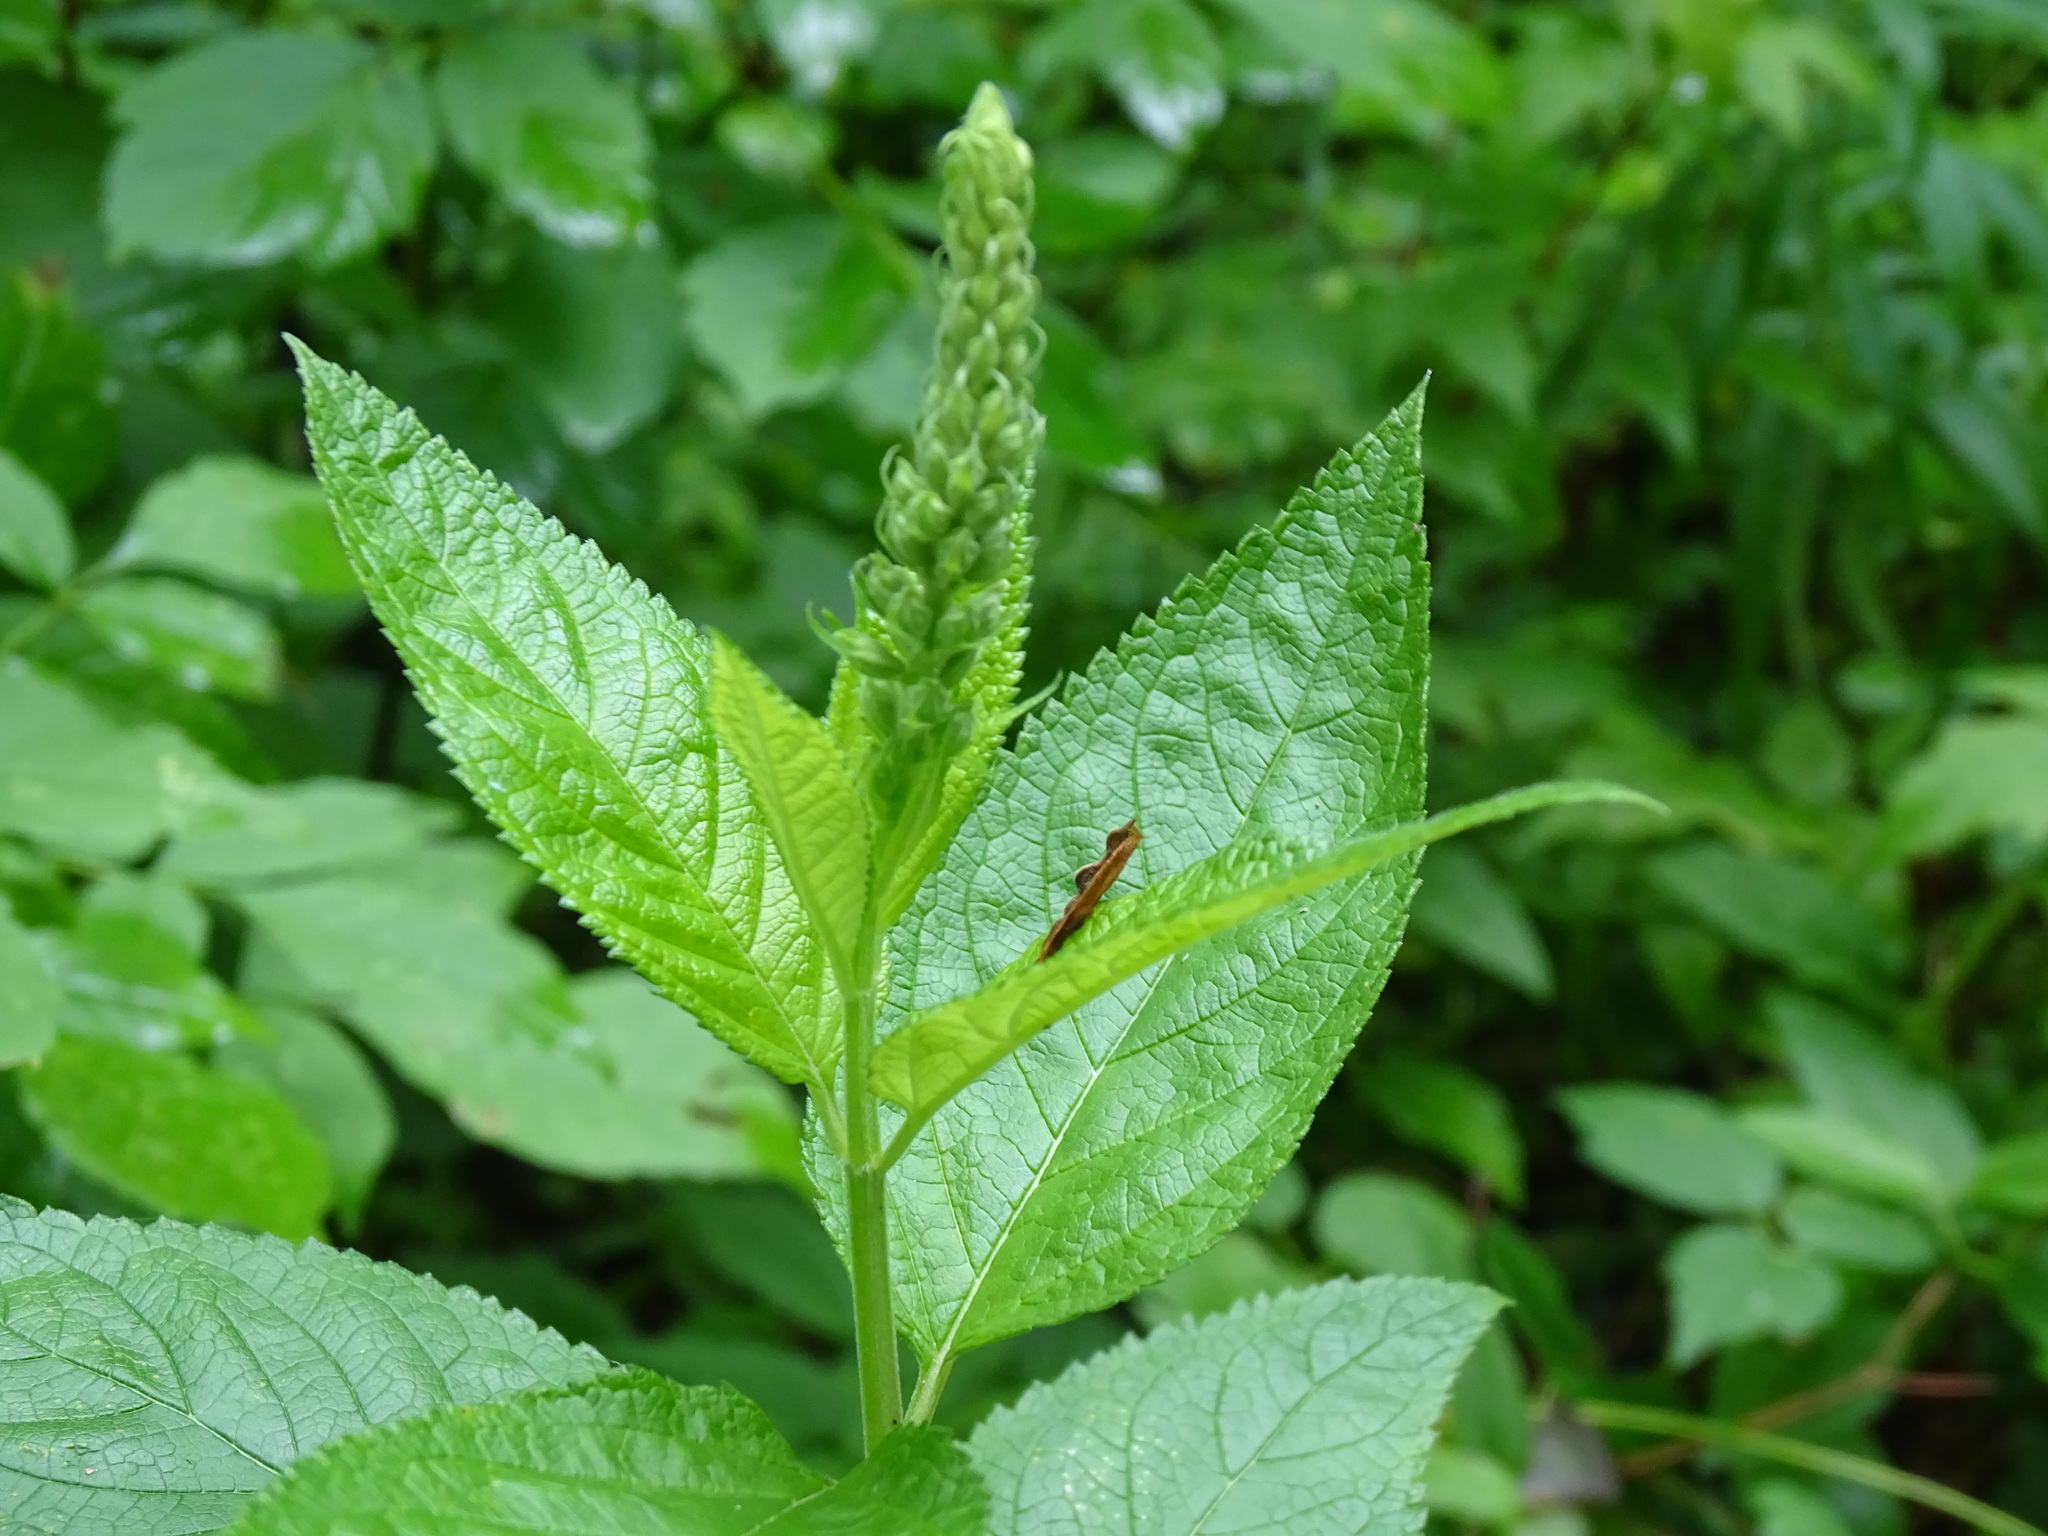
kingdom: Plantae
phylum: Tracheophyta
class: Magnoliopsida
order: Lamiales
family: Lamiaceae
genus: Teucrium
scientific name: Teucrium canadense
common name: American germander
